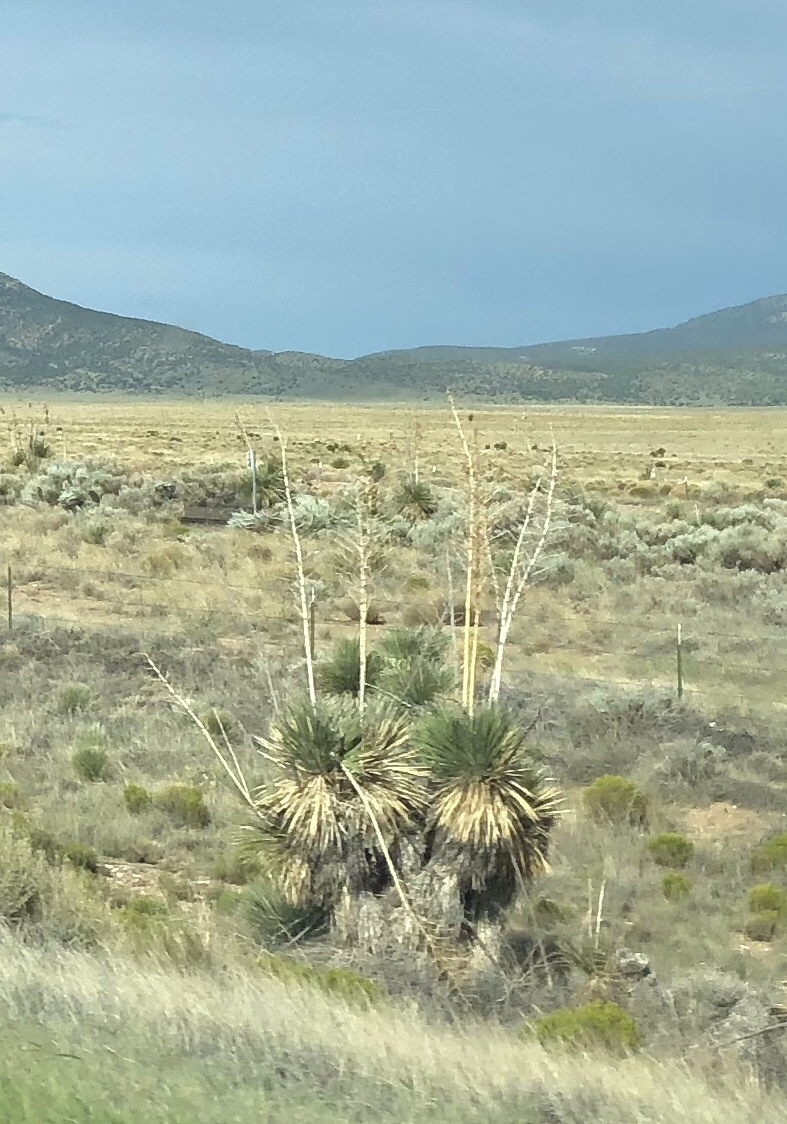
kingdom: Plantae
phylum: Tracheophyta
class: Liliopsida
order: Asparagales
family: Asparagaceae
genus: Yucca
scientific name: Yucca elata
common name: Palmella
